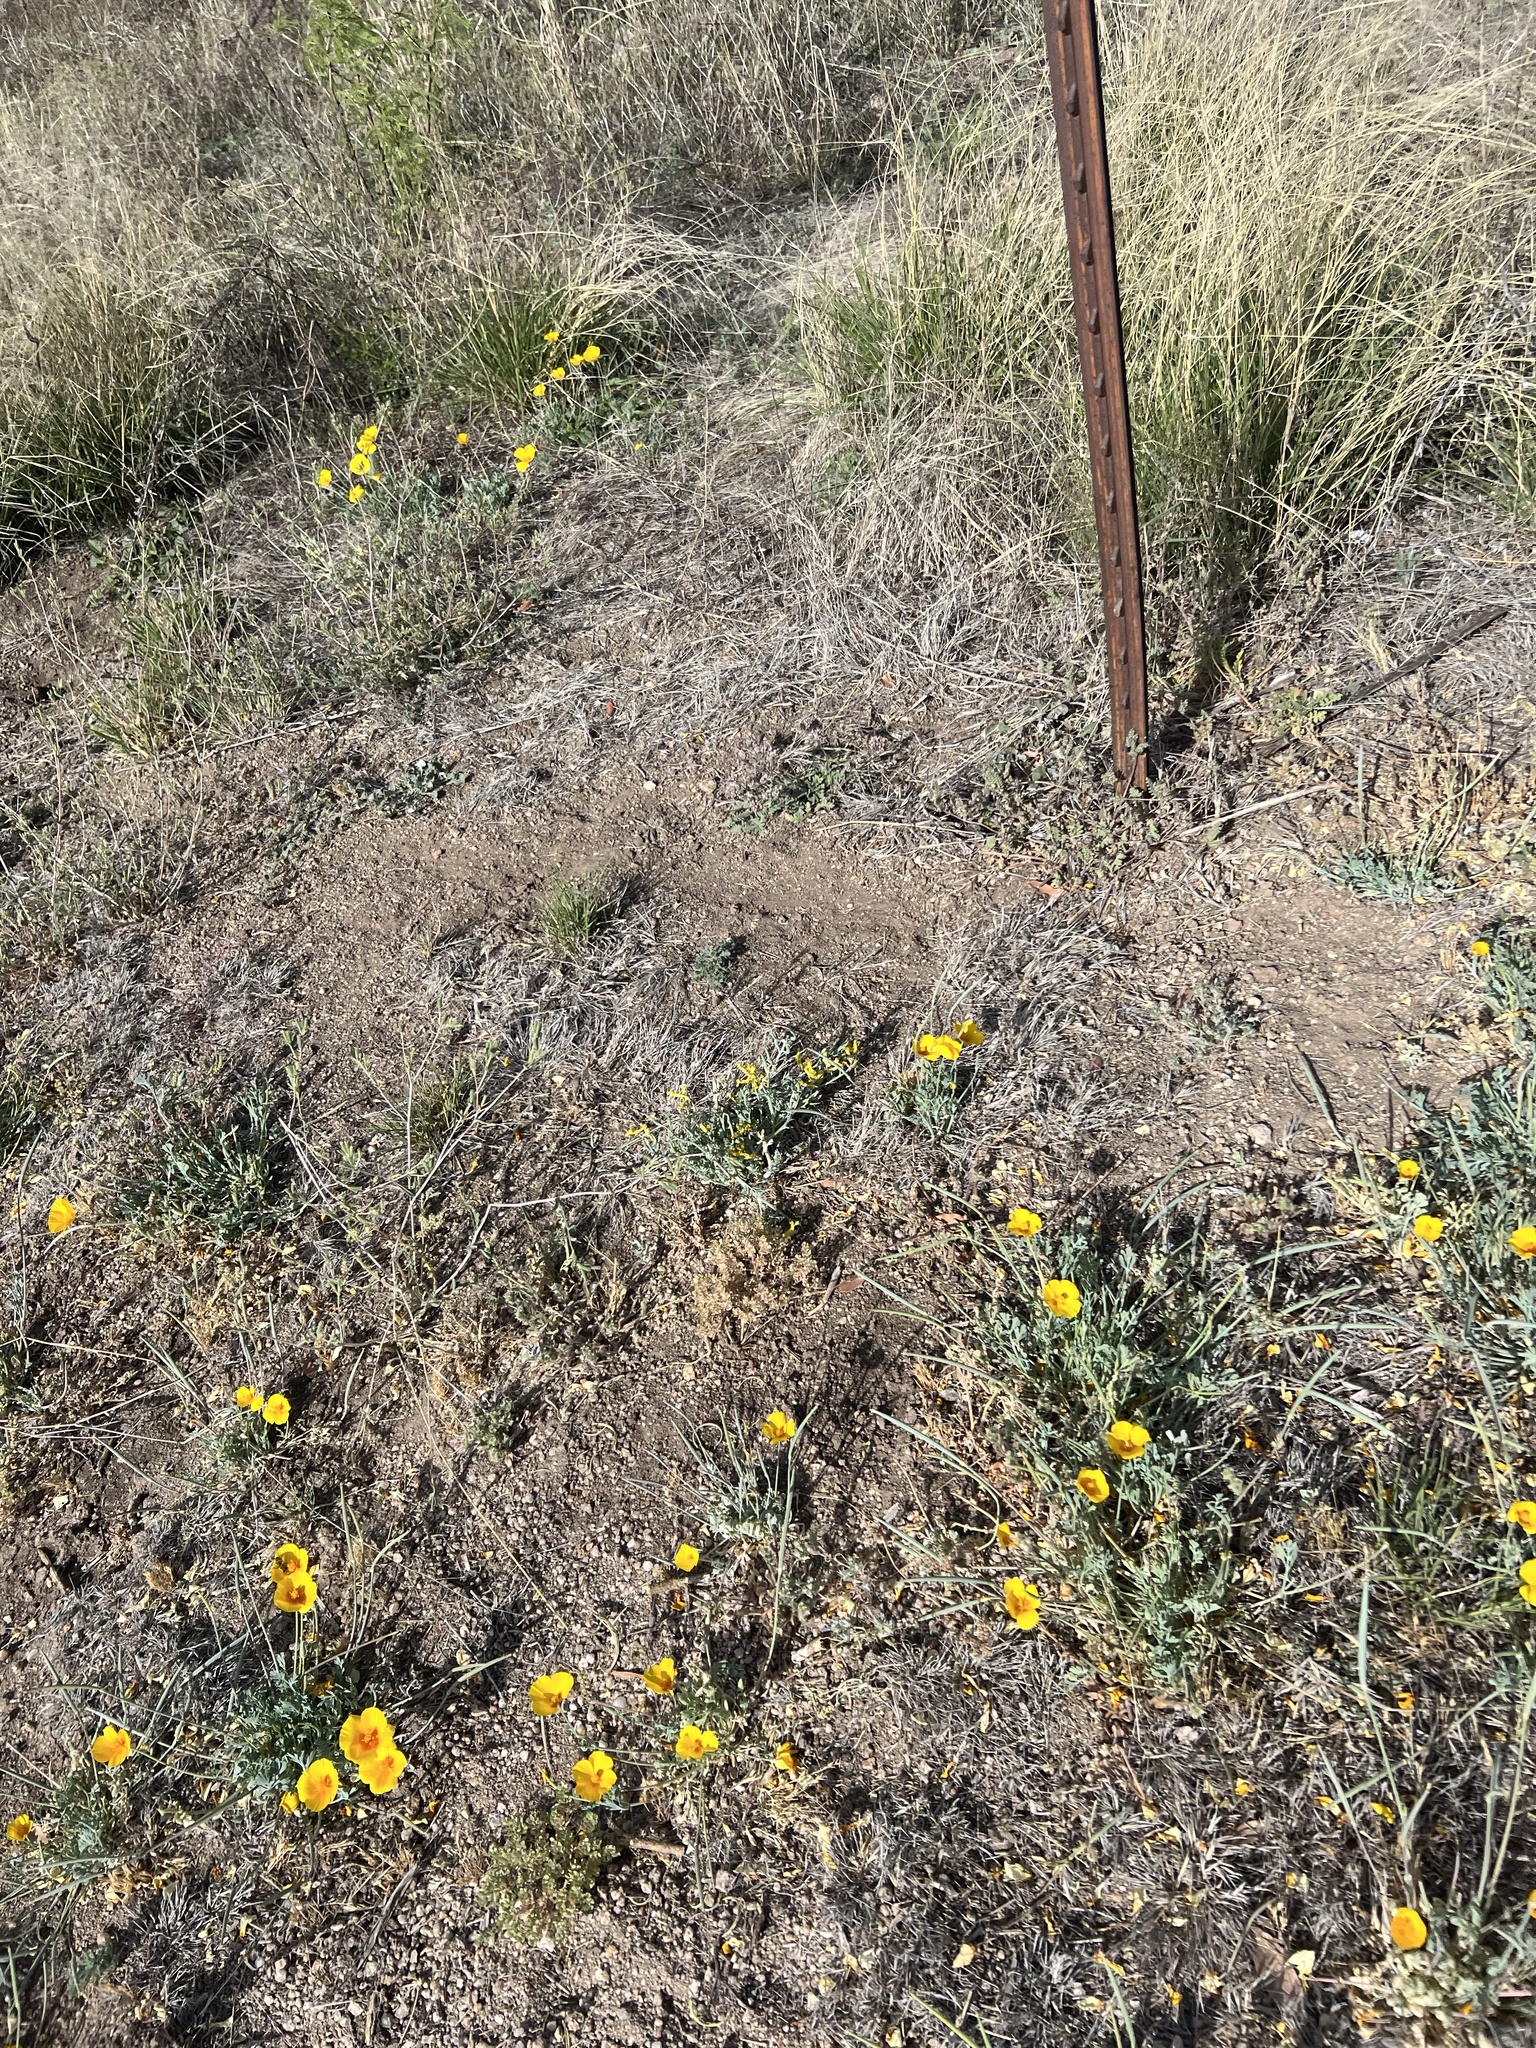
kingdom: Plantae
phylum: Tracheophyta
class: Magnoliopsida
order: Ranunculales
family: Papaveraceae
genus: Eschscholzia
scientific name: Eschscholzia californica
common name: California poppy
